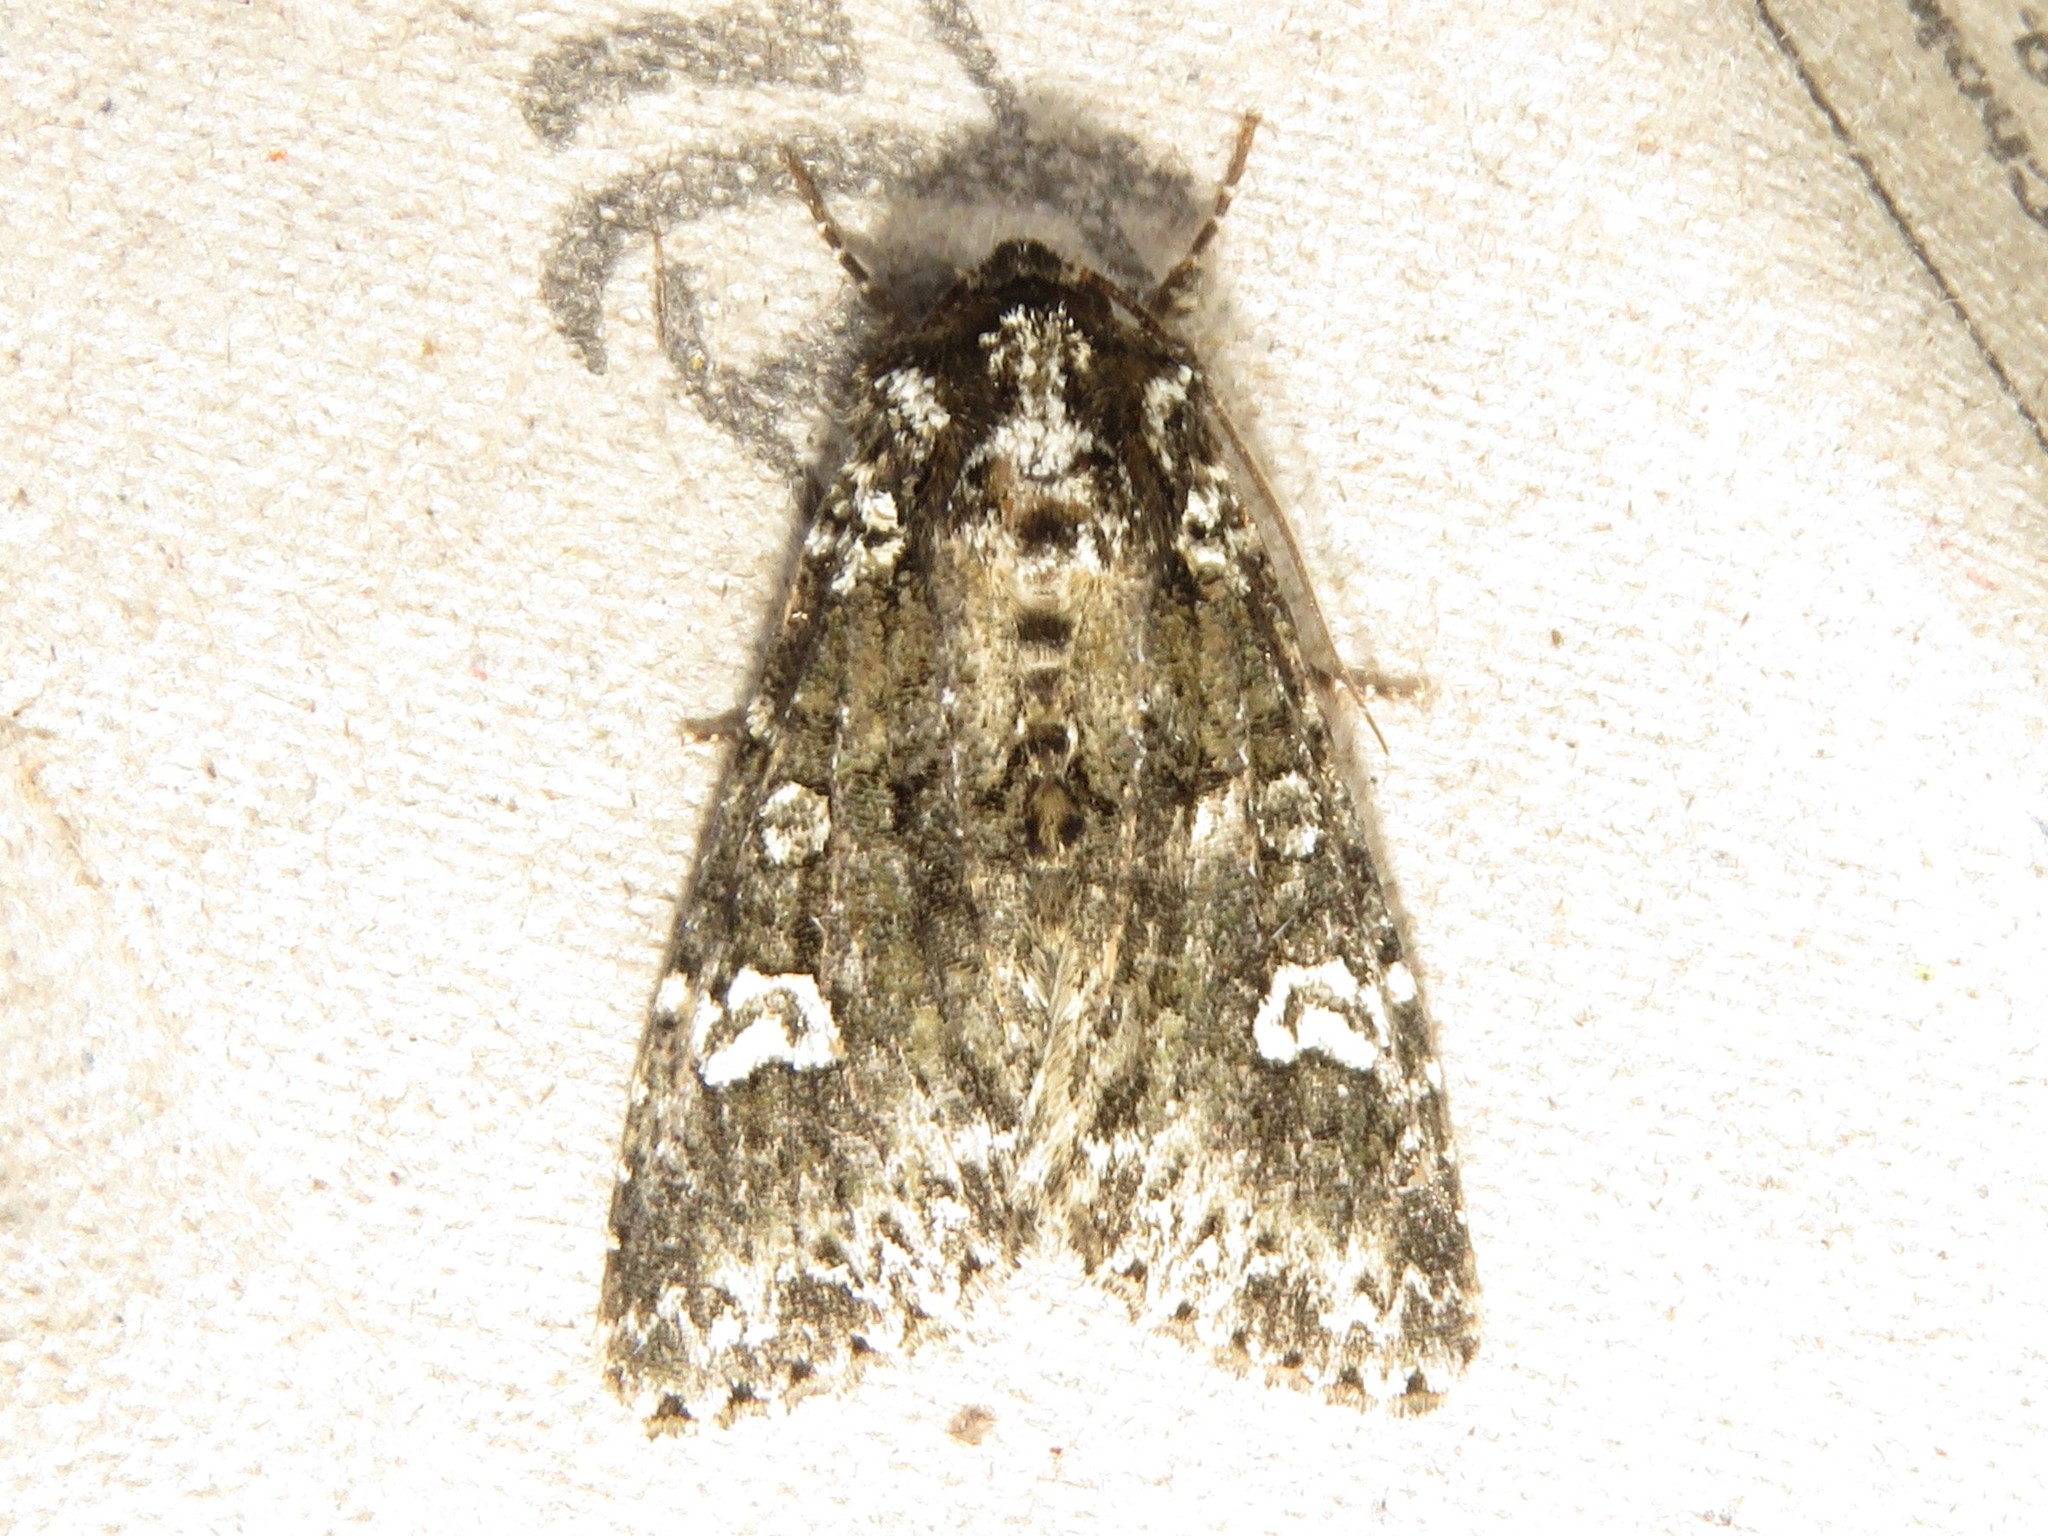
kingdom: Animalia
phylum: Arthropoda
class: Insecta
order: Lepidoptera
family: Noctuidae
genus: Melanchra
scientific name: Melanchra adjuncta
